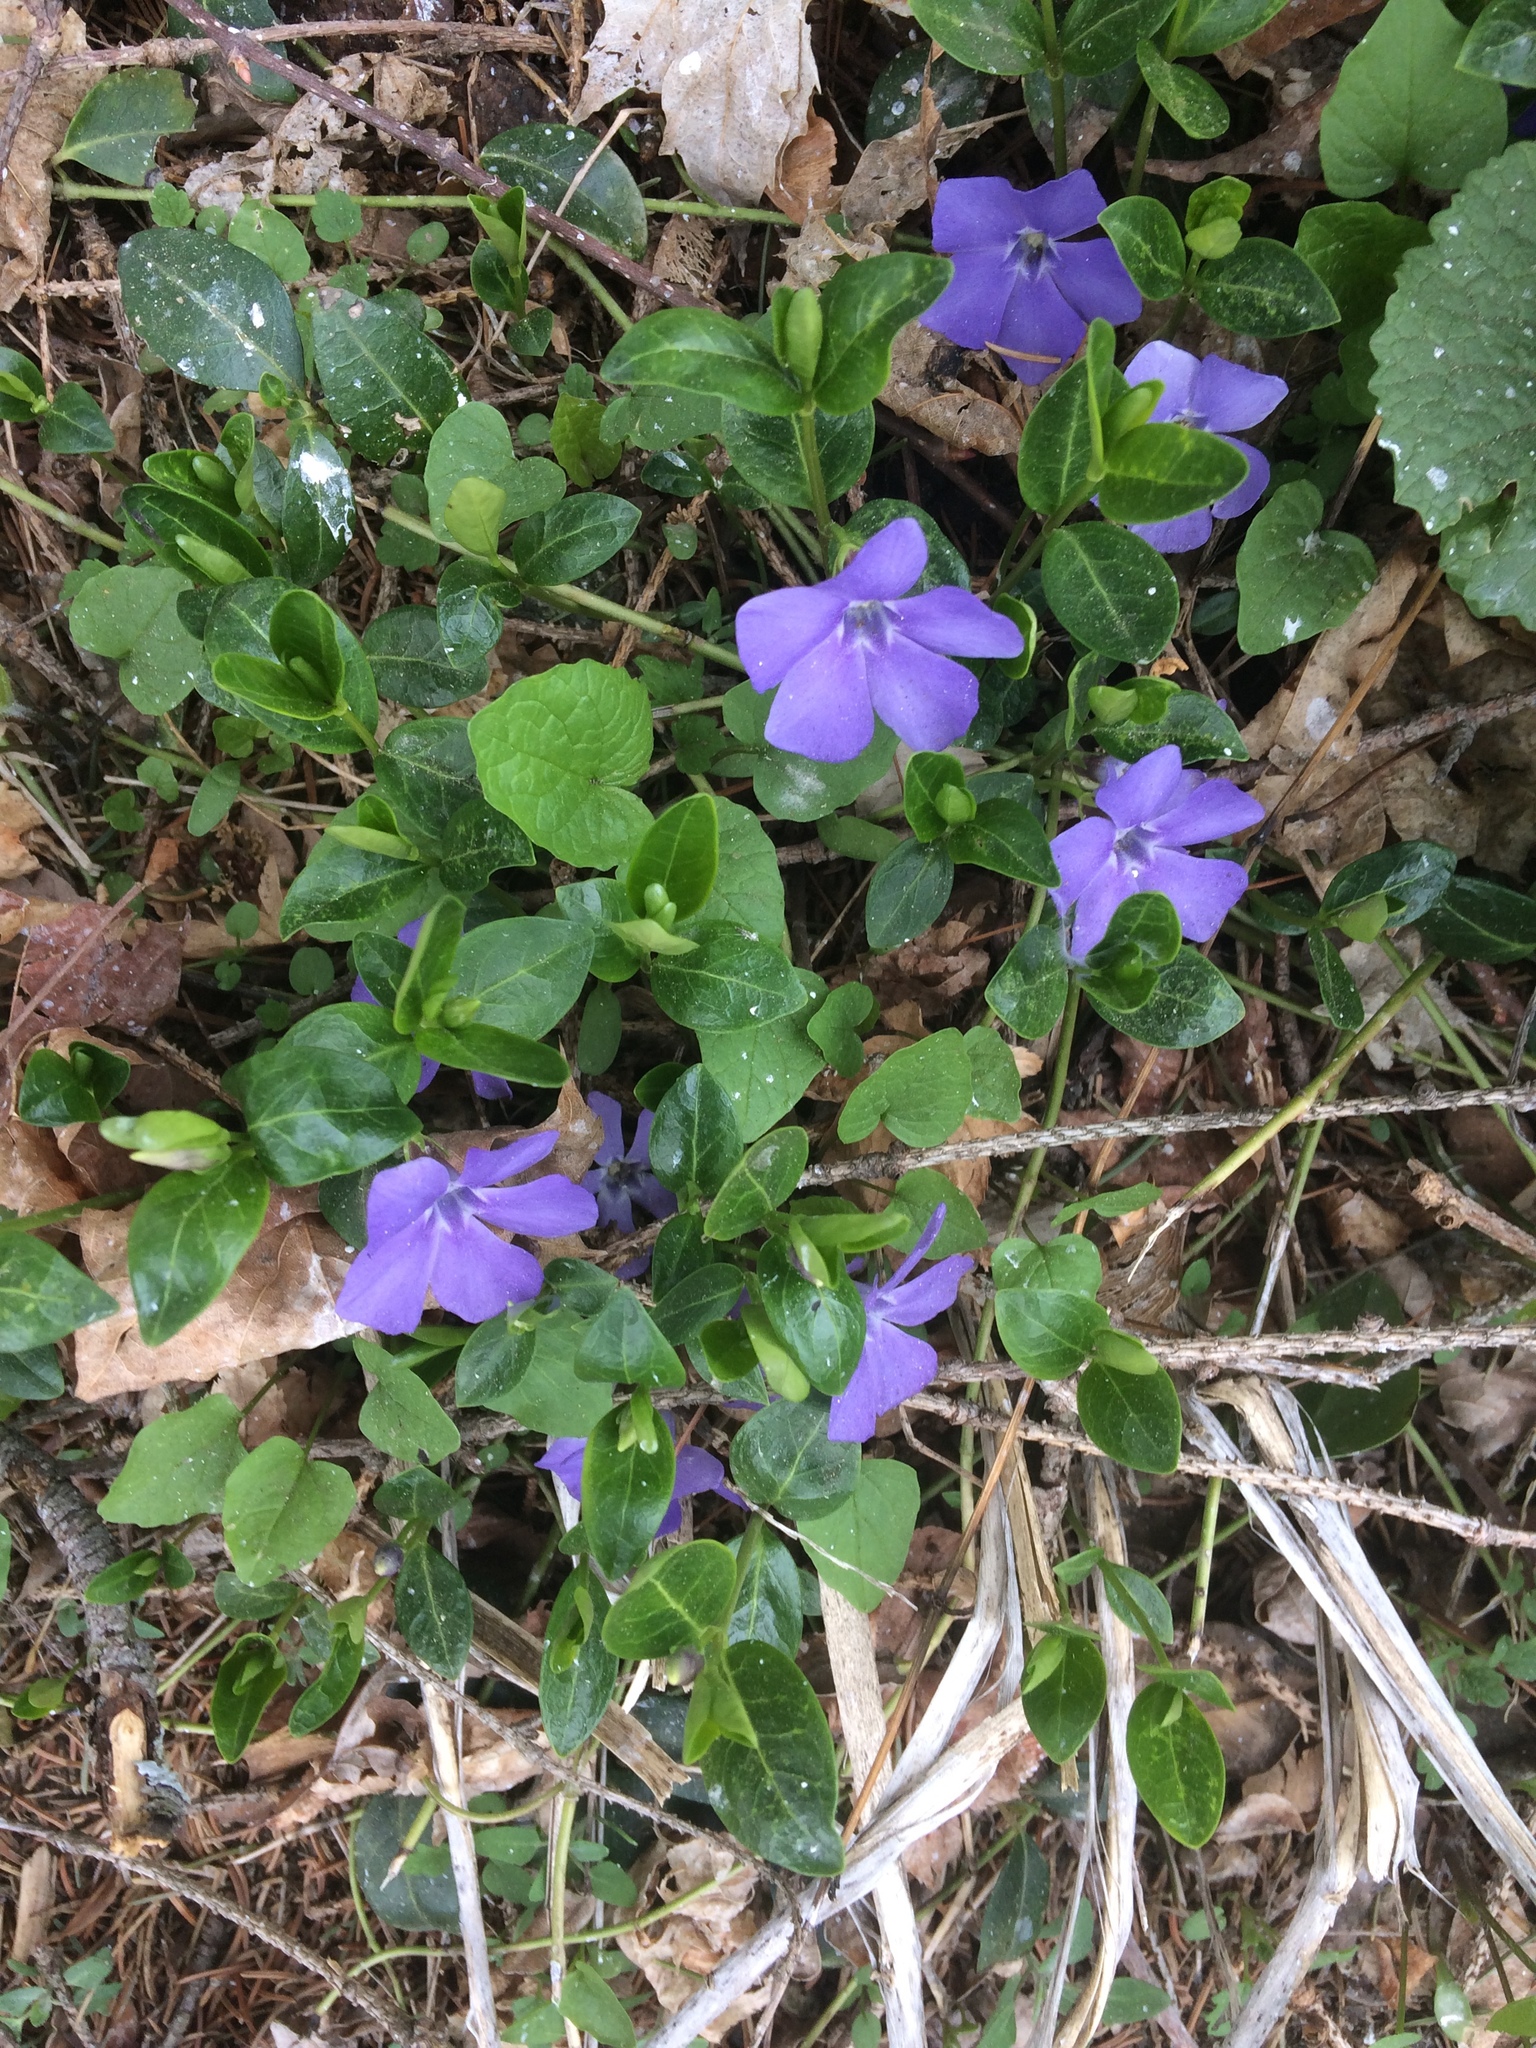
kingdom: Plantae
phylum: Tracheophyta
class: Magnoliopsida
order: Gentianales
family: Apocynaceae
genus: Vinca
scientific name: Vinca minor
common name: Lesser periwinkle
